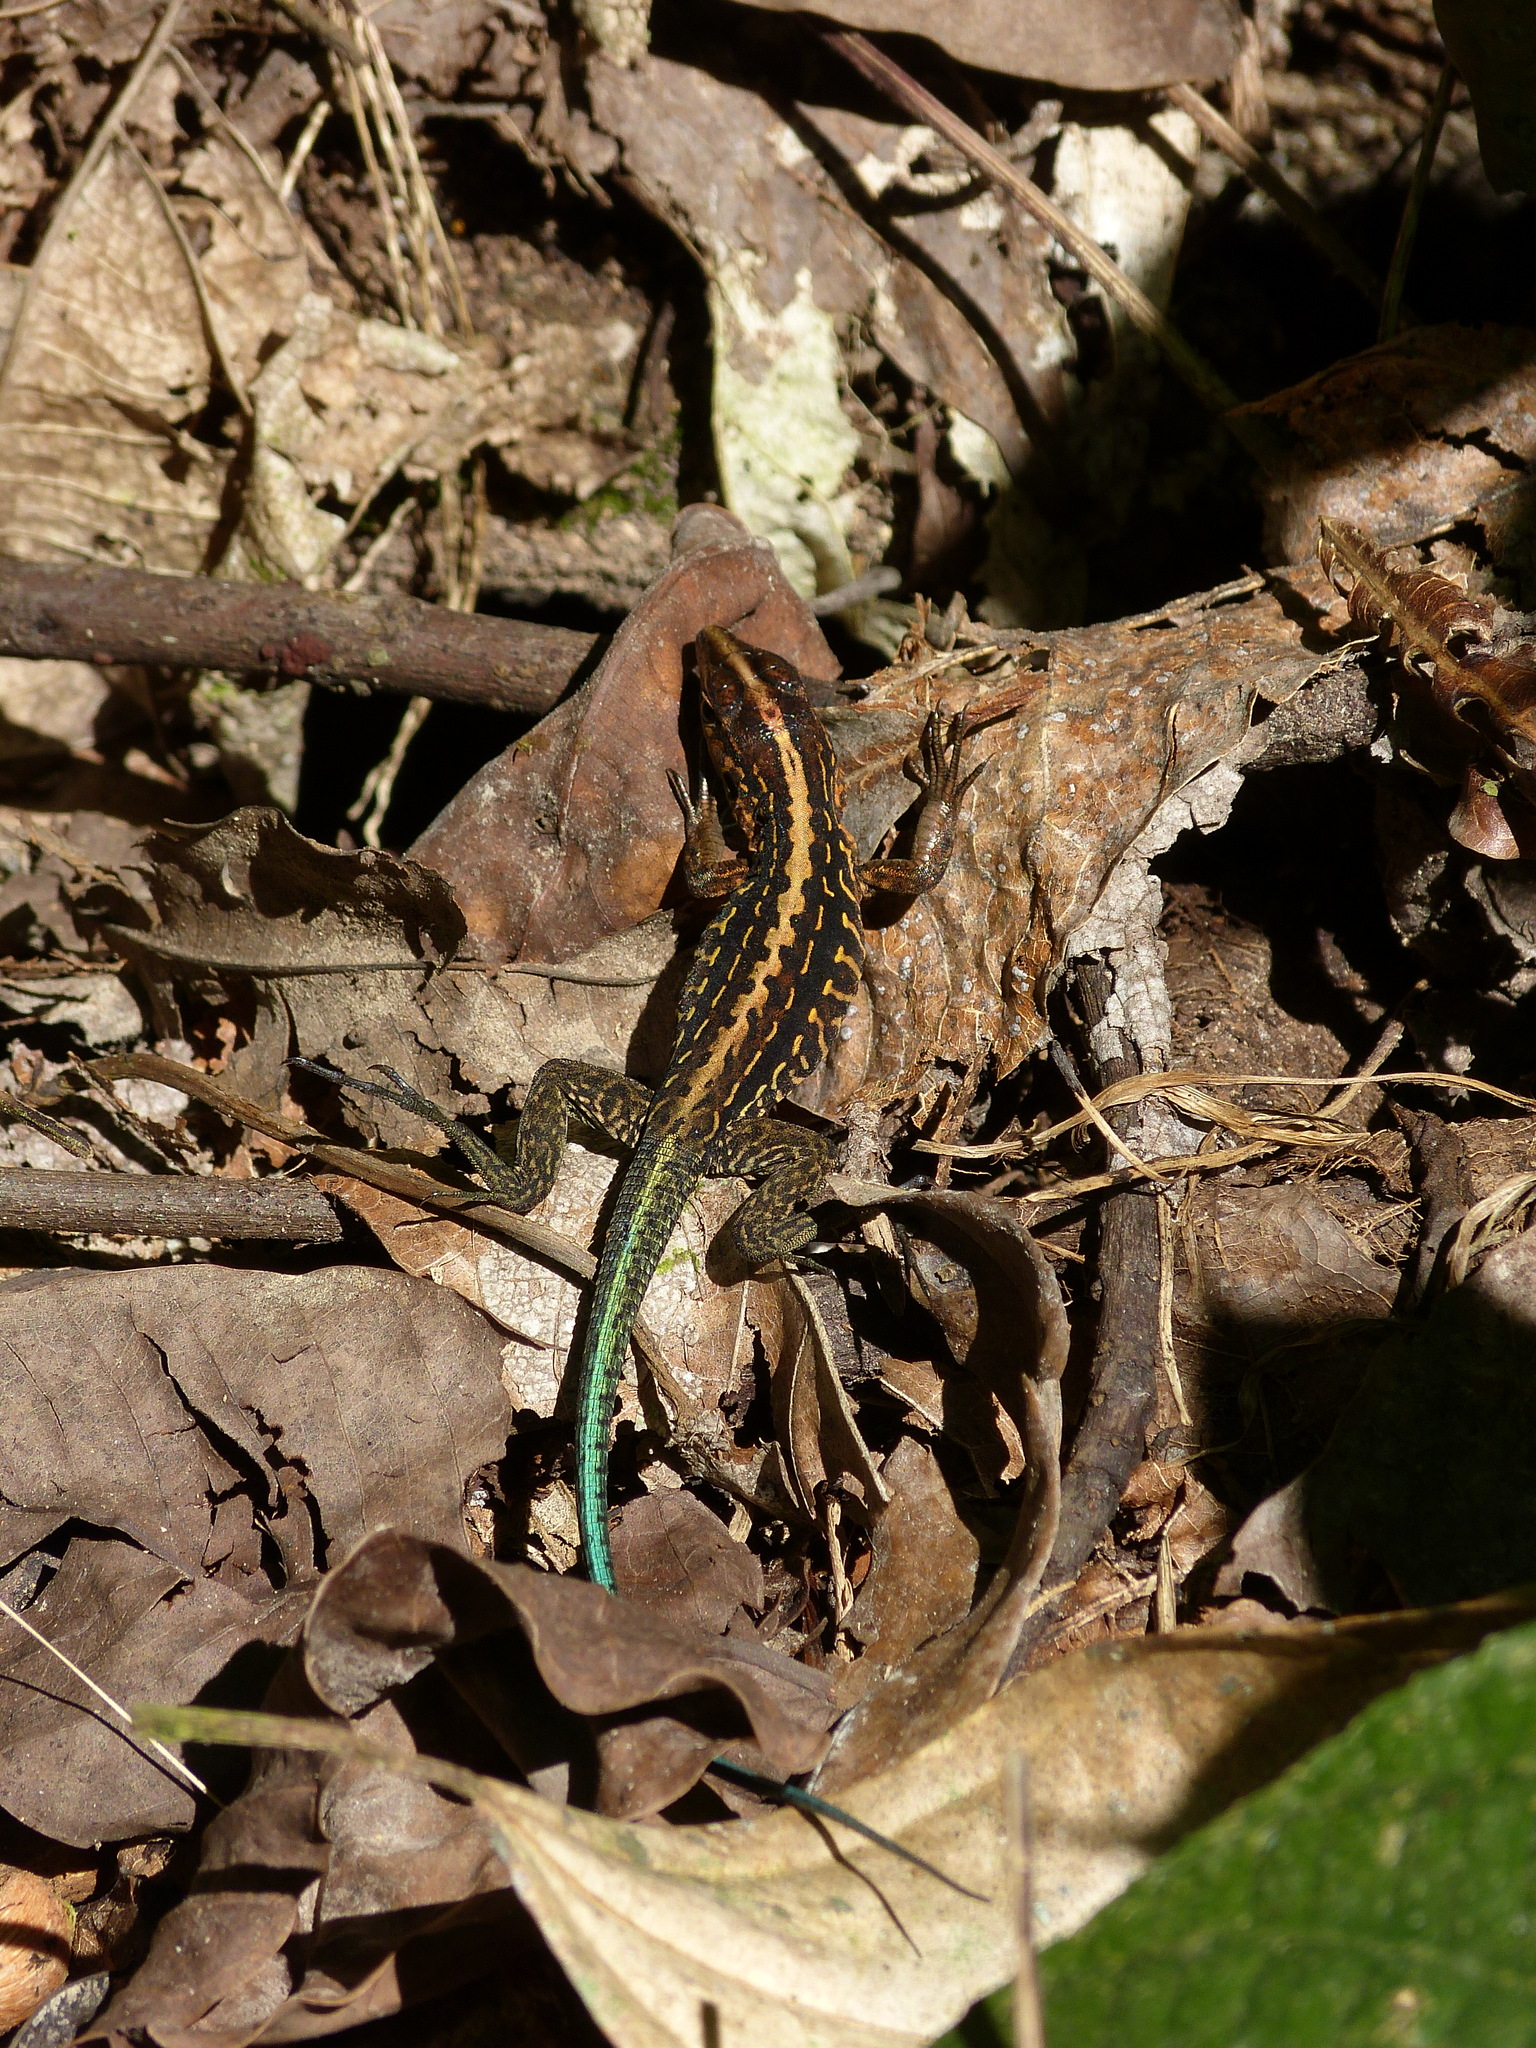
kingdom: Animalia
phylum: Chordata
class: Squamata
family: Teiidae
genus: Holcosus
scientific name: Holcosus festivus
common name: Middle american ameiva
